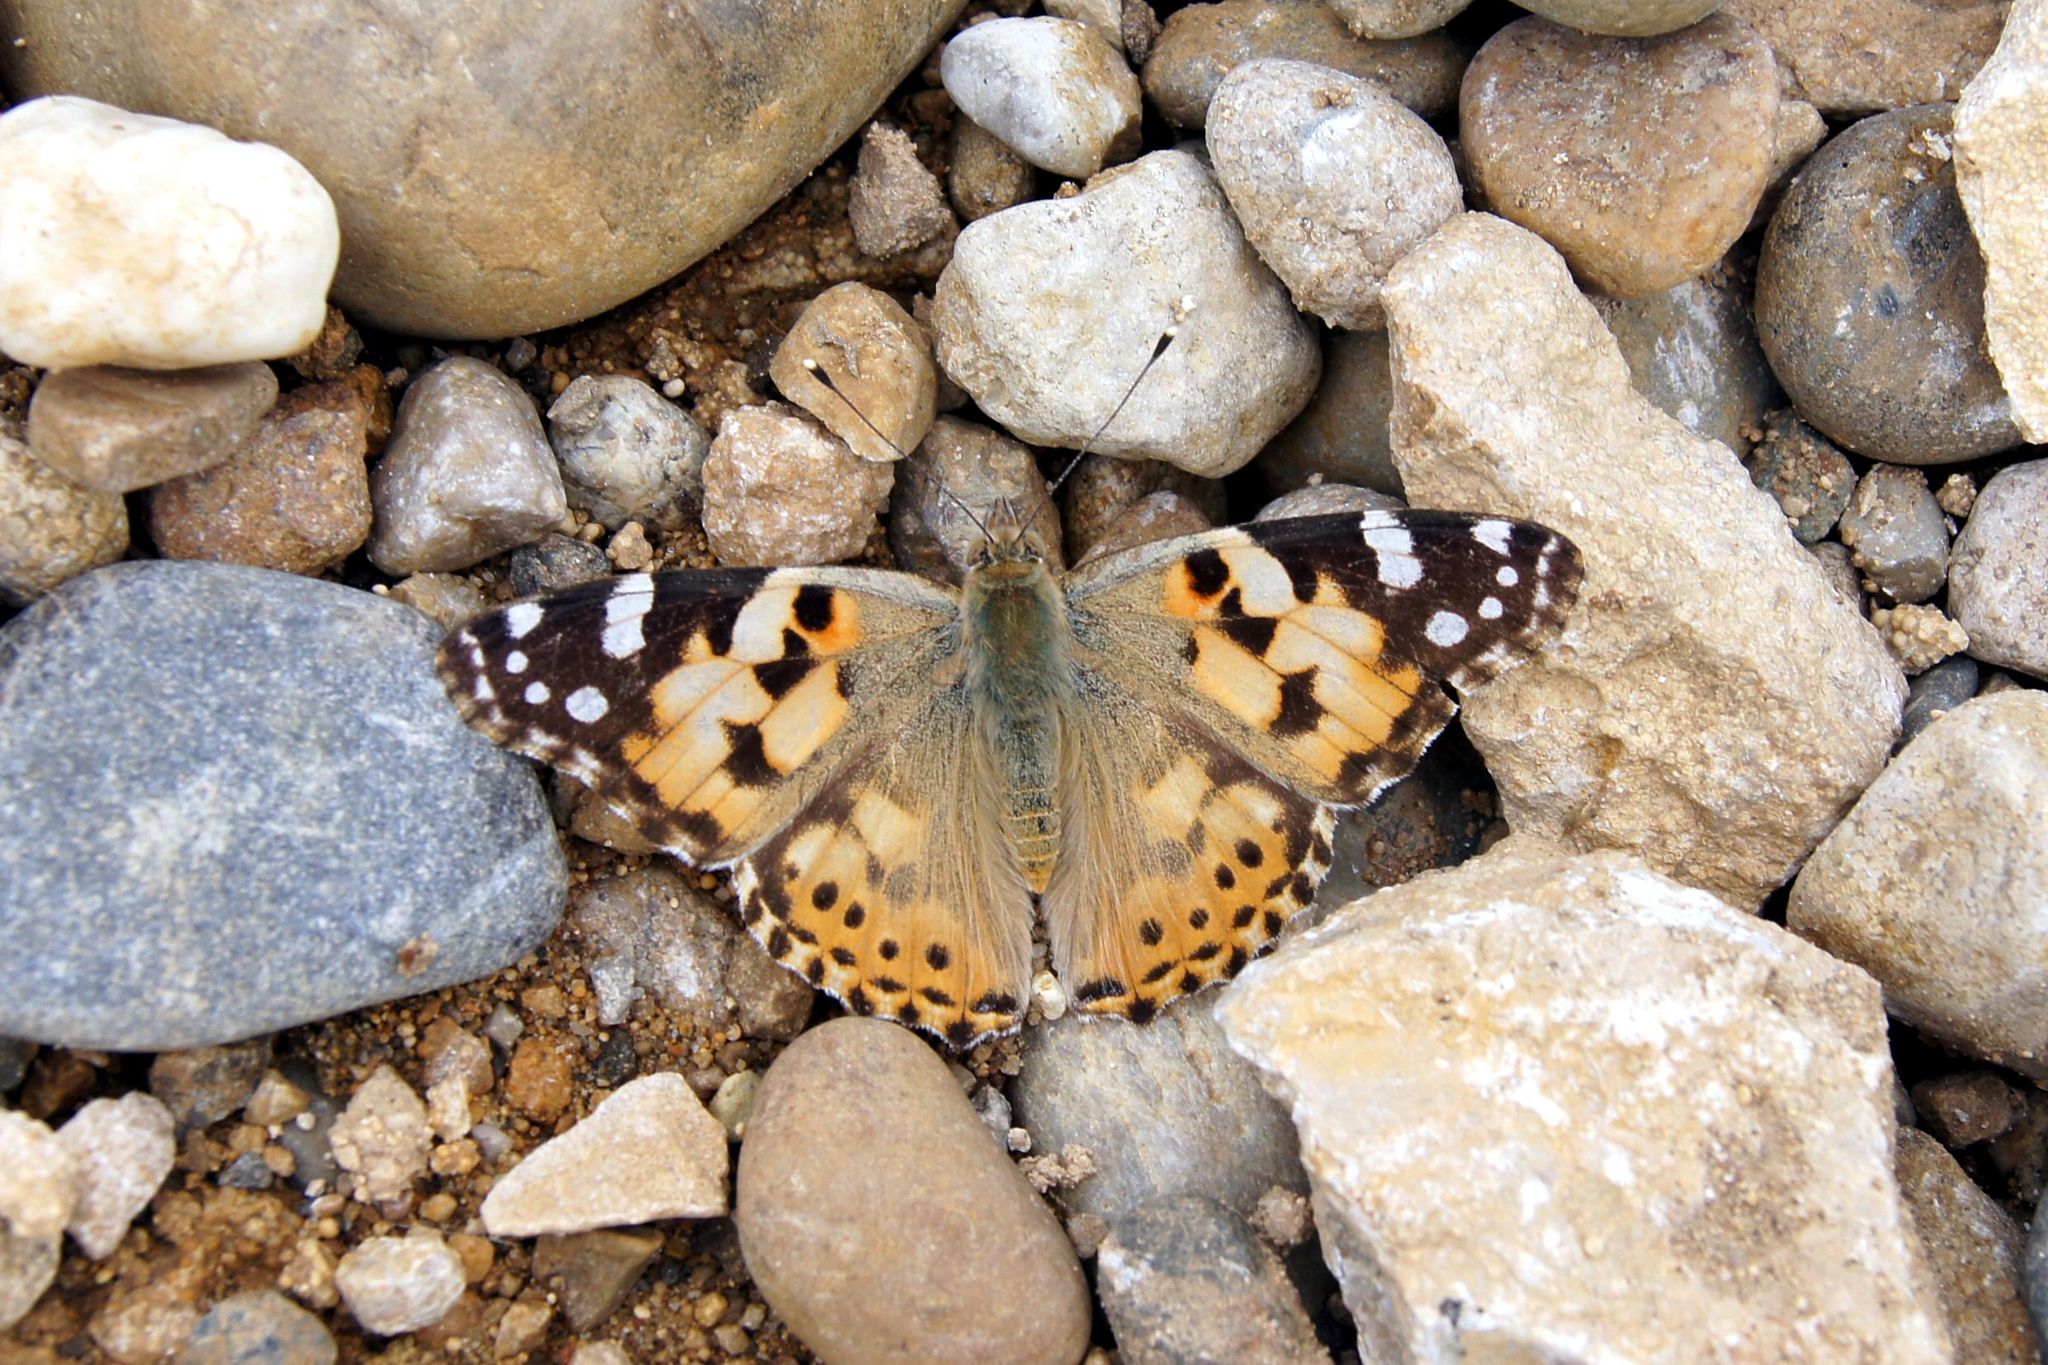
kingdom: Animalia
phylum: Arthropoda
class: Insecta
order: Lepidoptera
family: Nymphalidae
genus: Vanessa
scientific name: Vanessa cardui
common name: Painted lady
